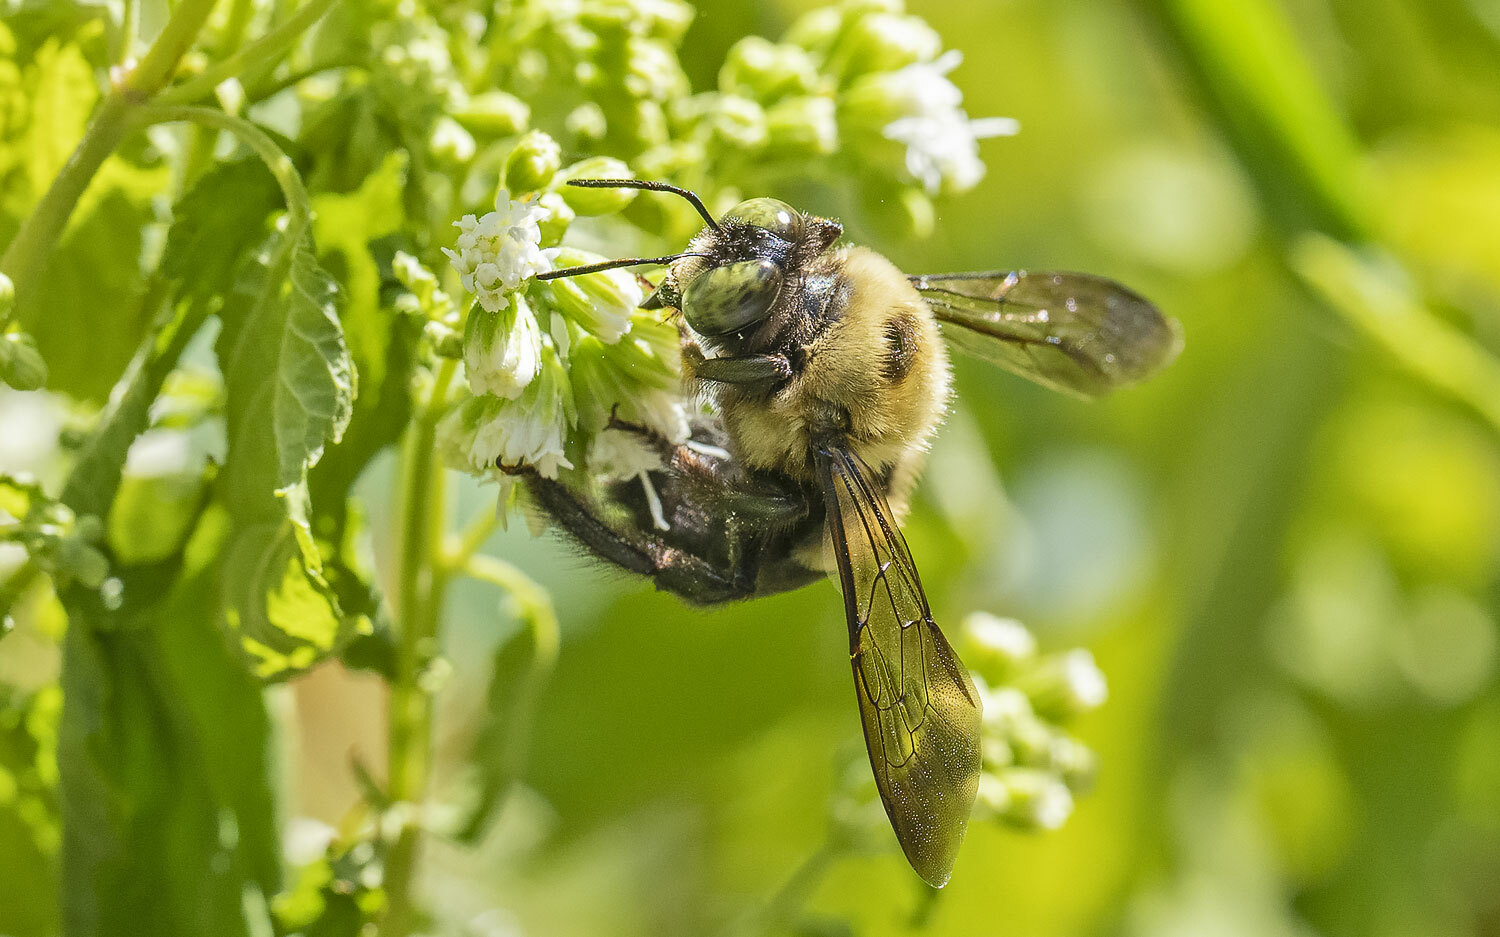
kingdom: Animalia
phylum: Arthropoda
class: Insecta
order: Hymenoptera
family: Apidae
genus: Xylocopa
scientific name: Xylocopa virginica
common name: Carpenter bee
